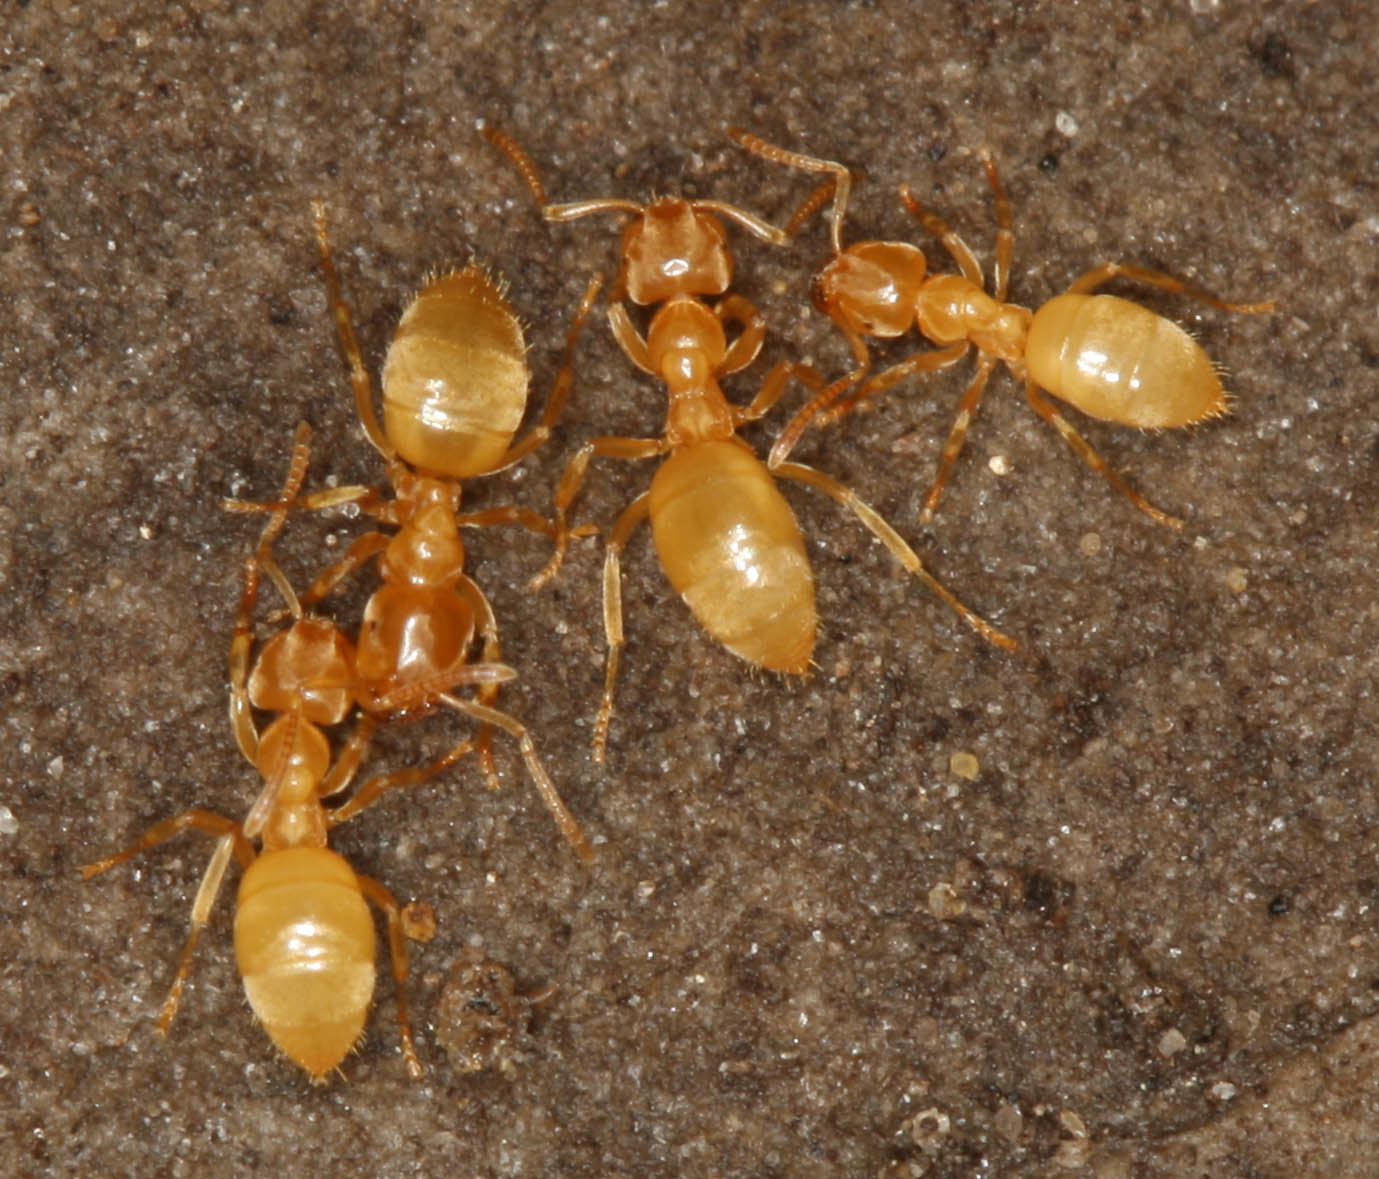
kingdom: Animalia
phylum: Arthropoda
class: Insecta
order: Hymenoptera
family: Formicidae
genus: Lasius
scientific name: Lasius nearcticus
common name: New world fuzzy ant
